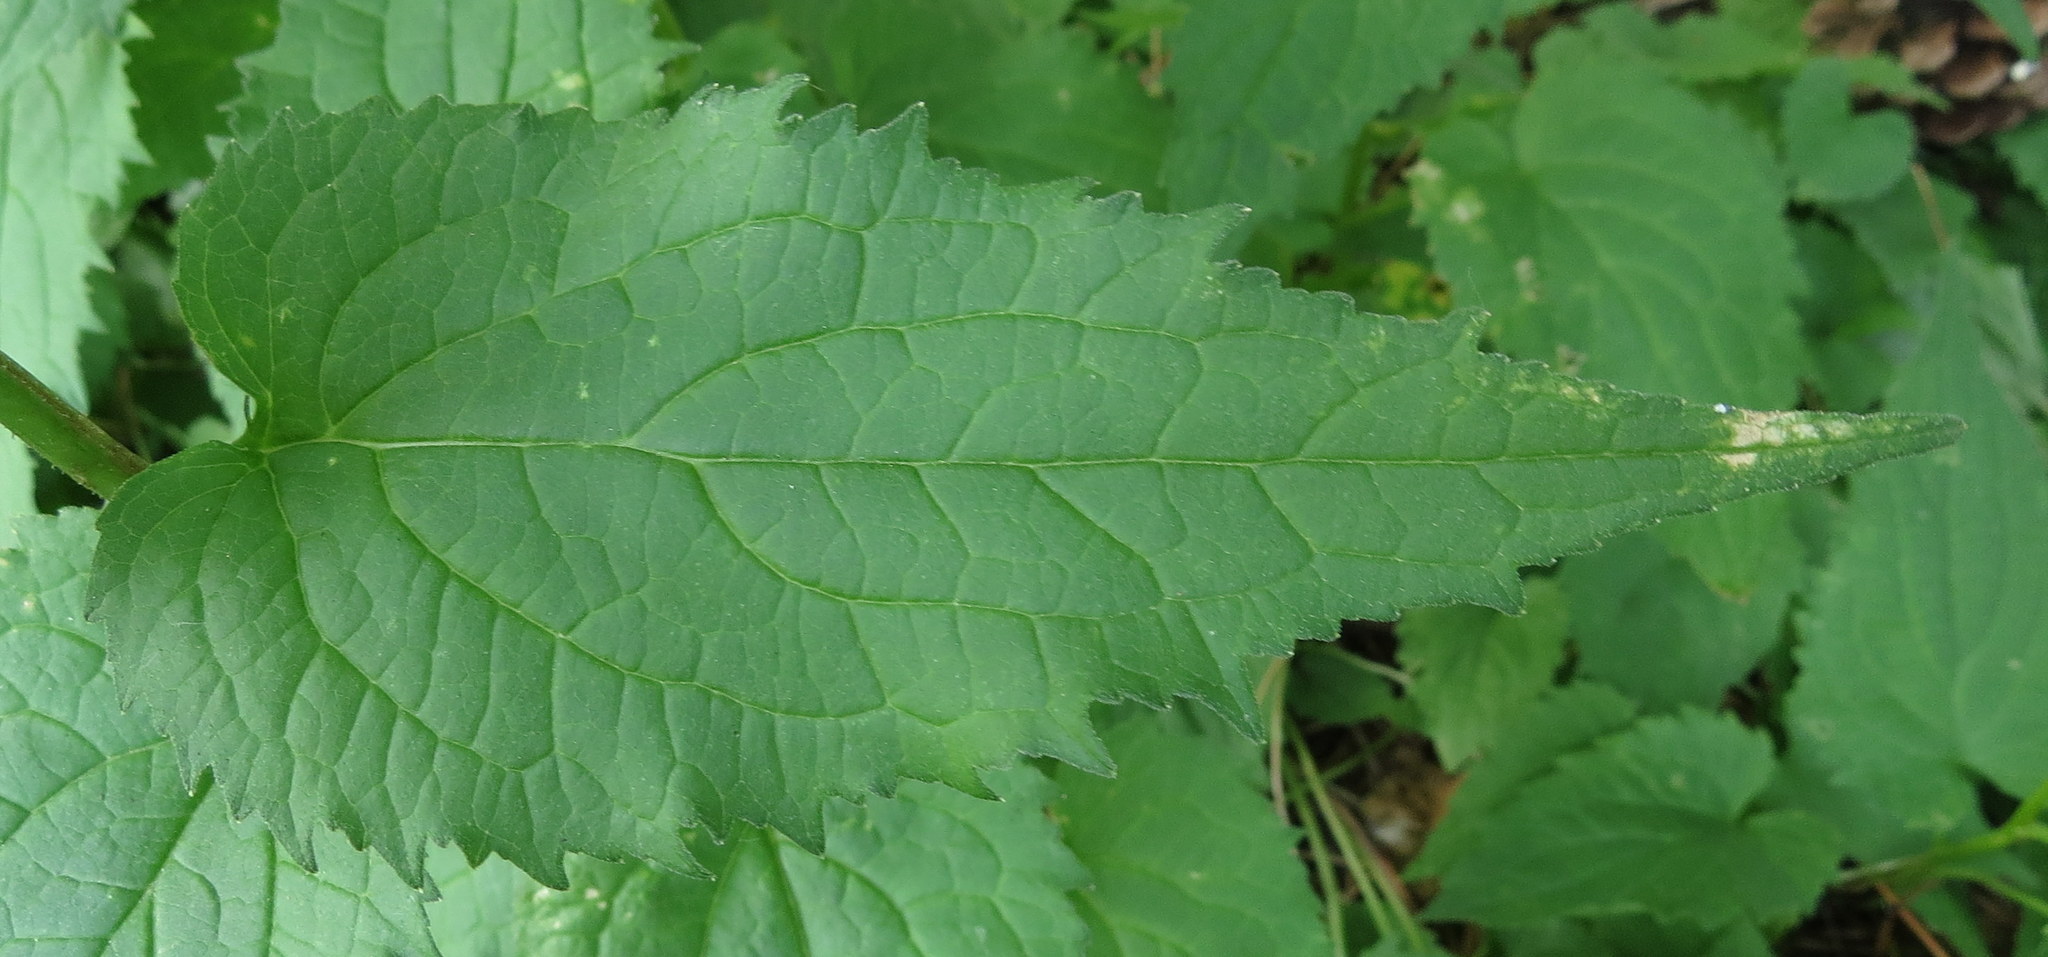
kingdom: Plantae
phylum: Tracheophyta
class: Magnoliopsida
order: Asterales
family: Campanulaceae
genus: Campanula
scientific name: Campanula rapunculoides
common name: Creeping bellflower
